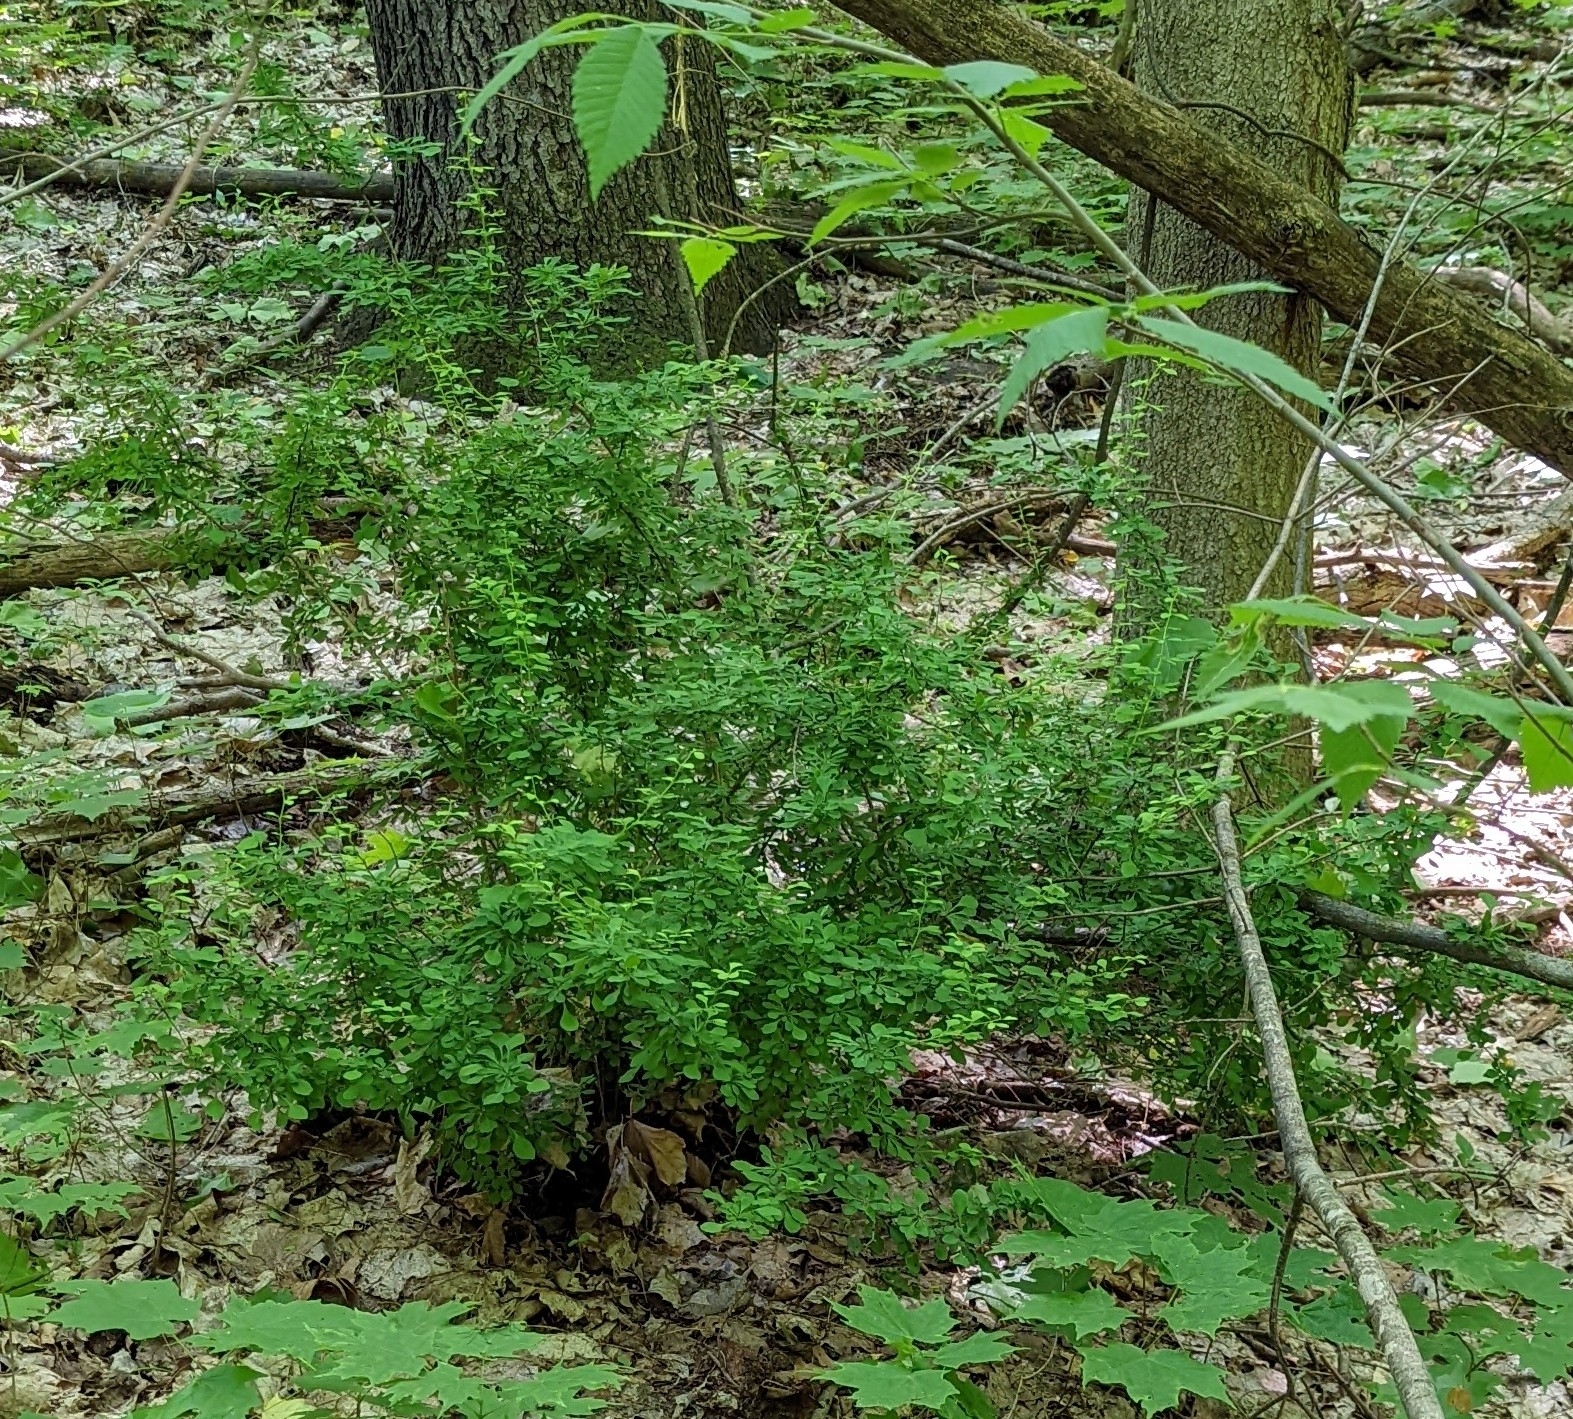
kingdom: Plantae
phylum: Tracheophyta
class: Magnoliopsida
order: Ranunculales
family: Berberidaceae
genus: Berberis
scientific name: Berberis thunbergii
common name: Japanese barberry
